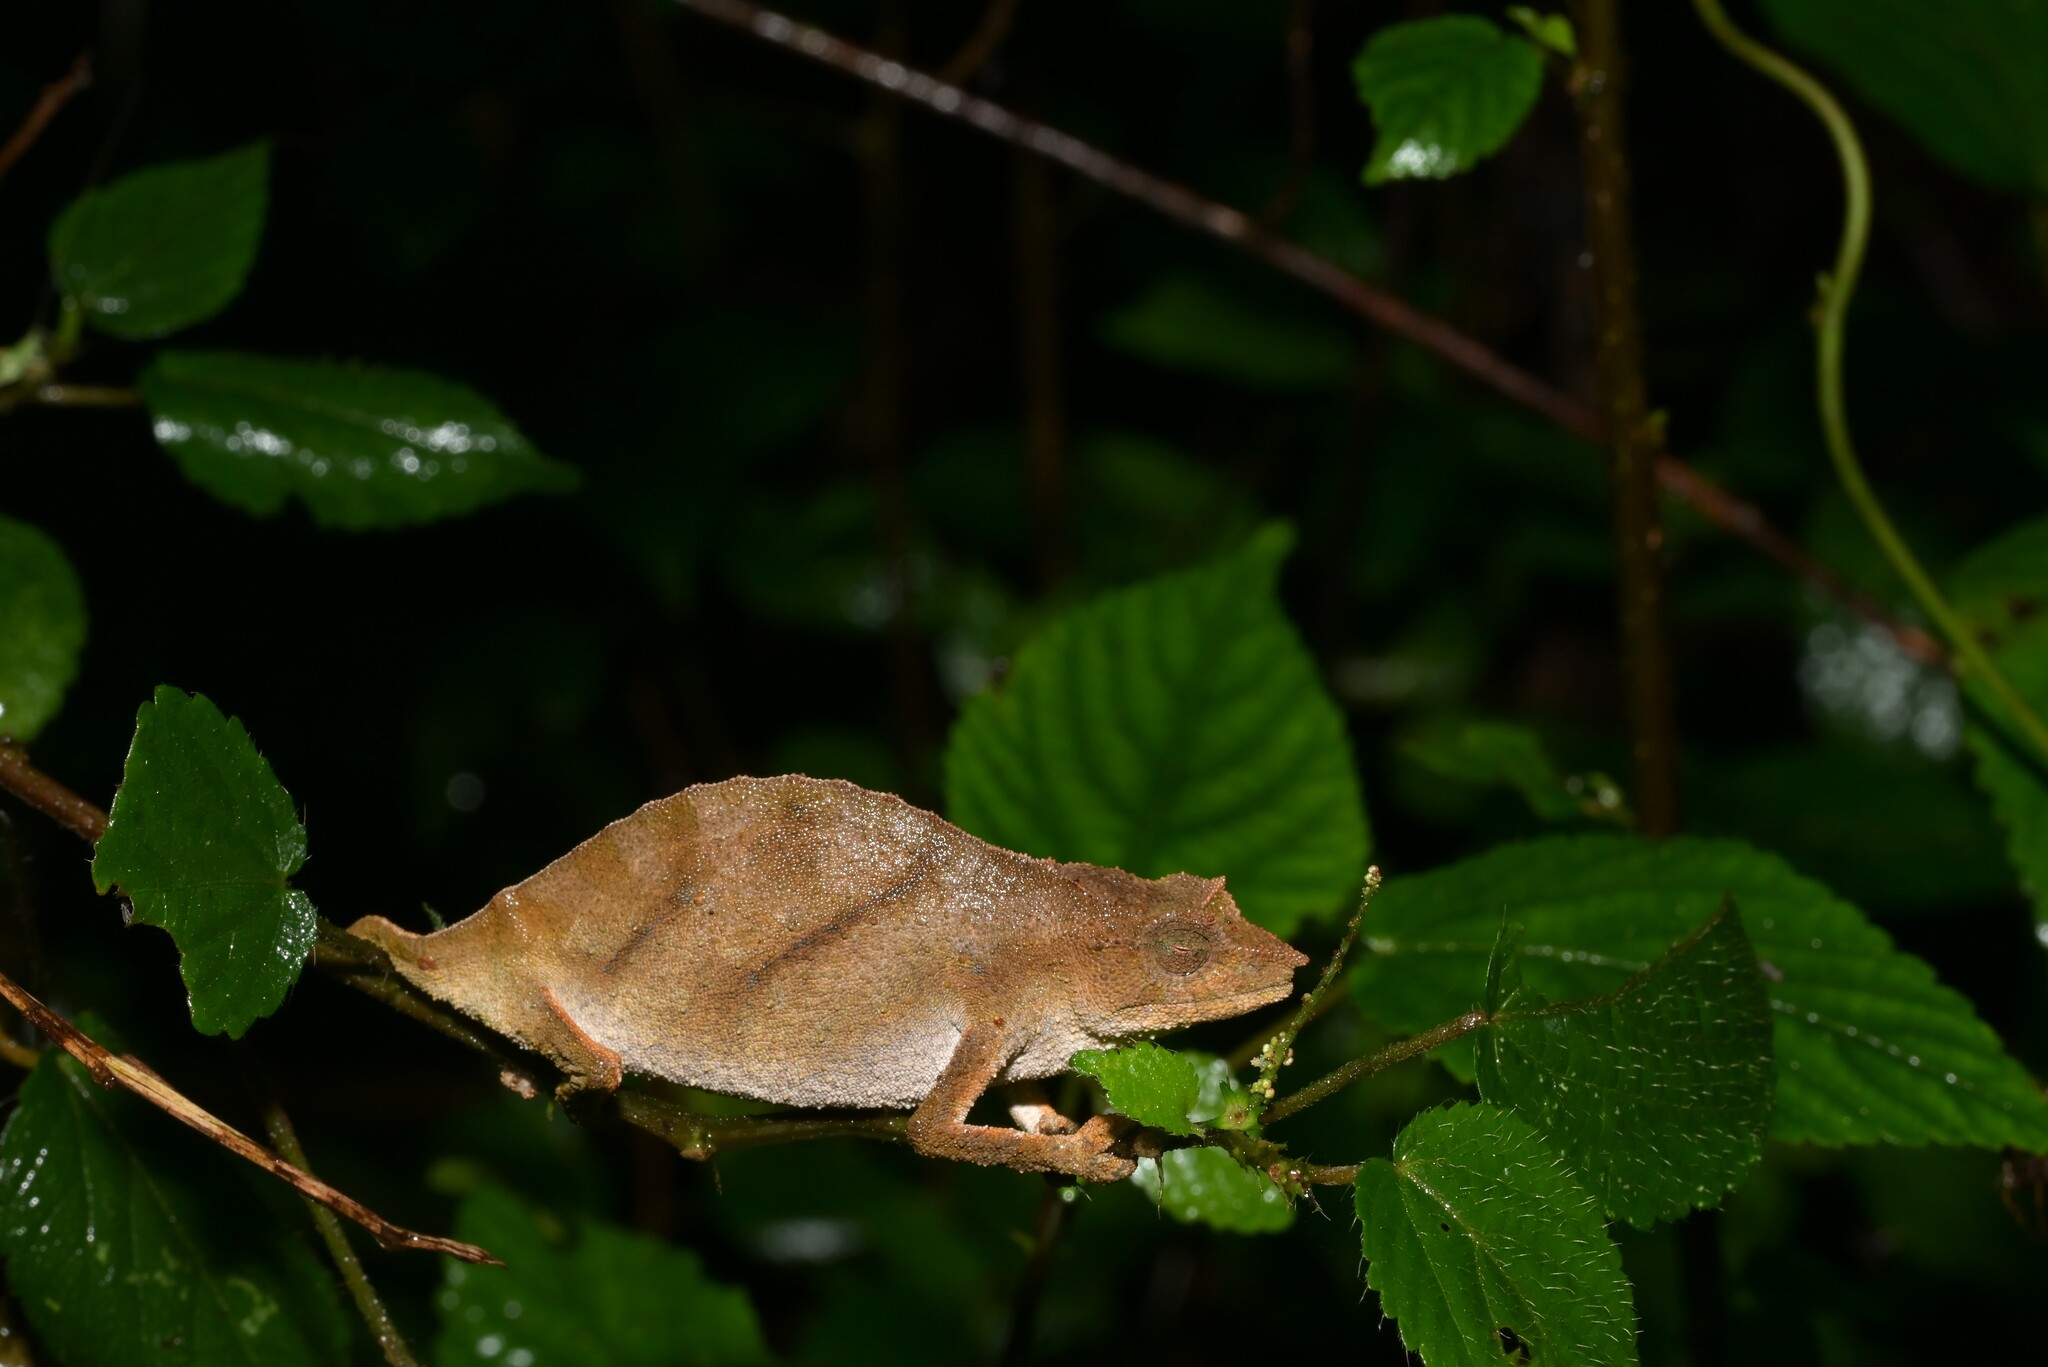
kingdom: Animalia
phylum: Chordata
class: Squamata
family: Chamaeleonidae
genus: Rhampholeon
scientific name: Rhampholeon nchisiensis
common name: South african stumptail chameleon
